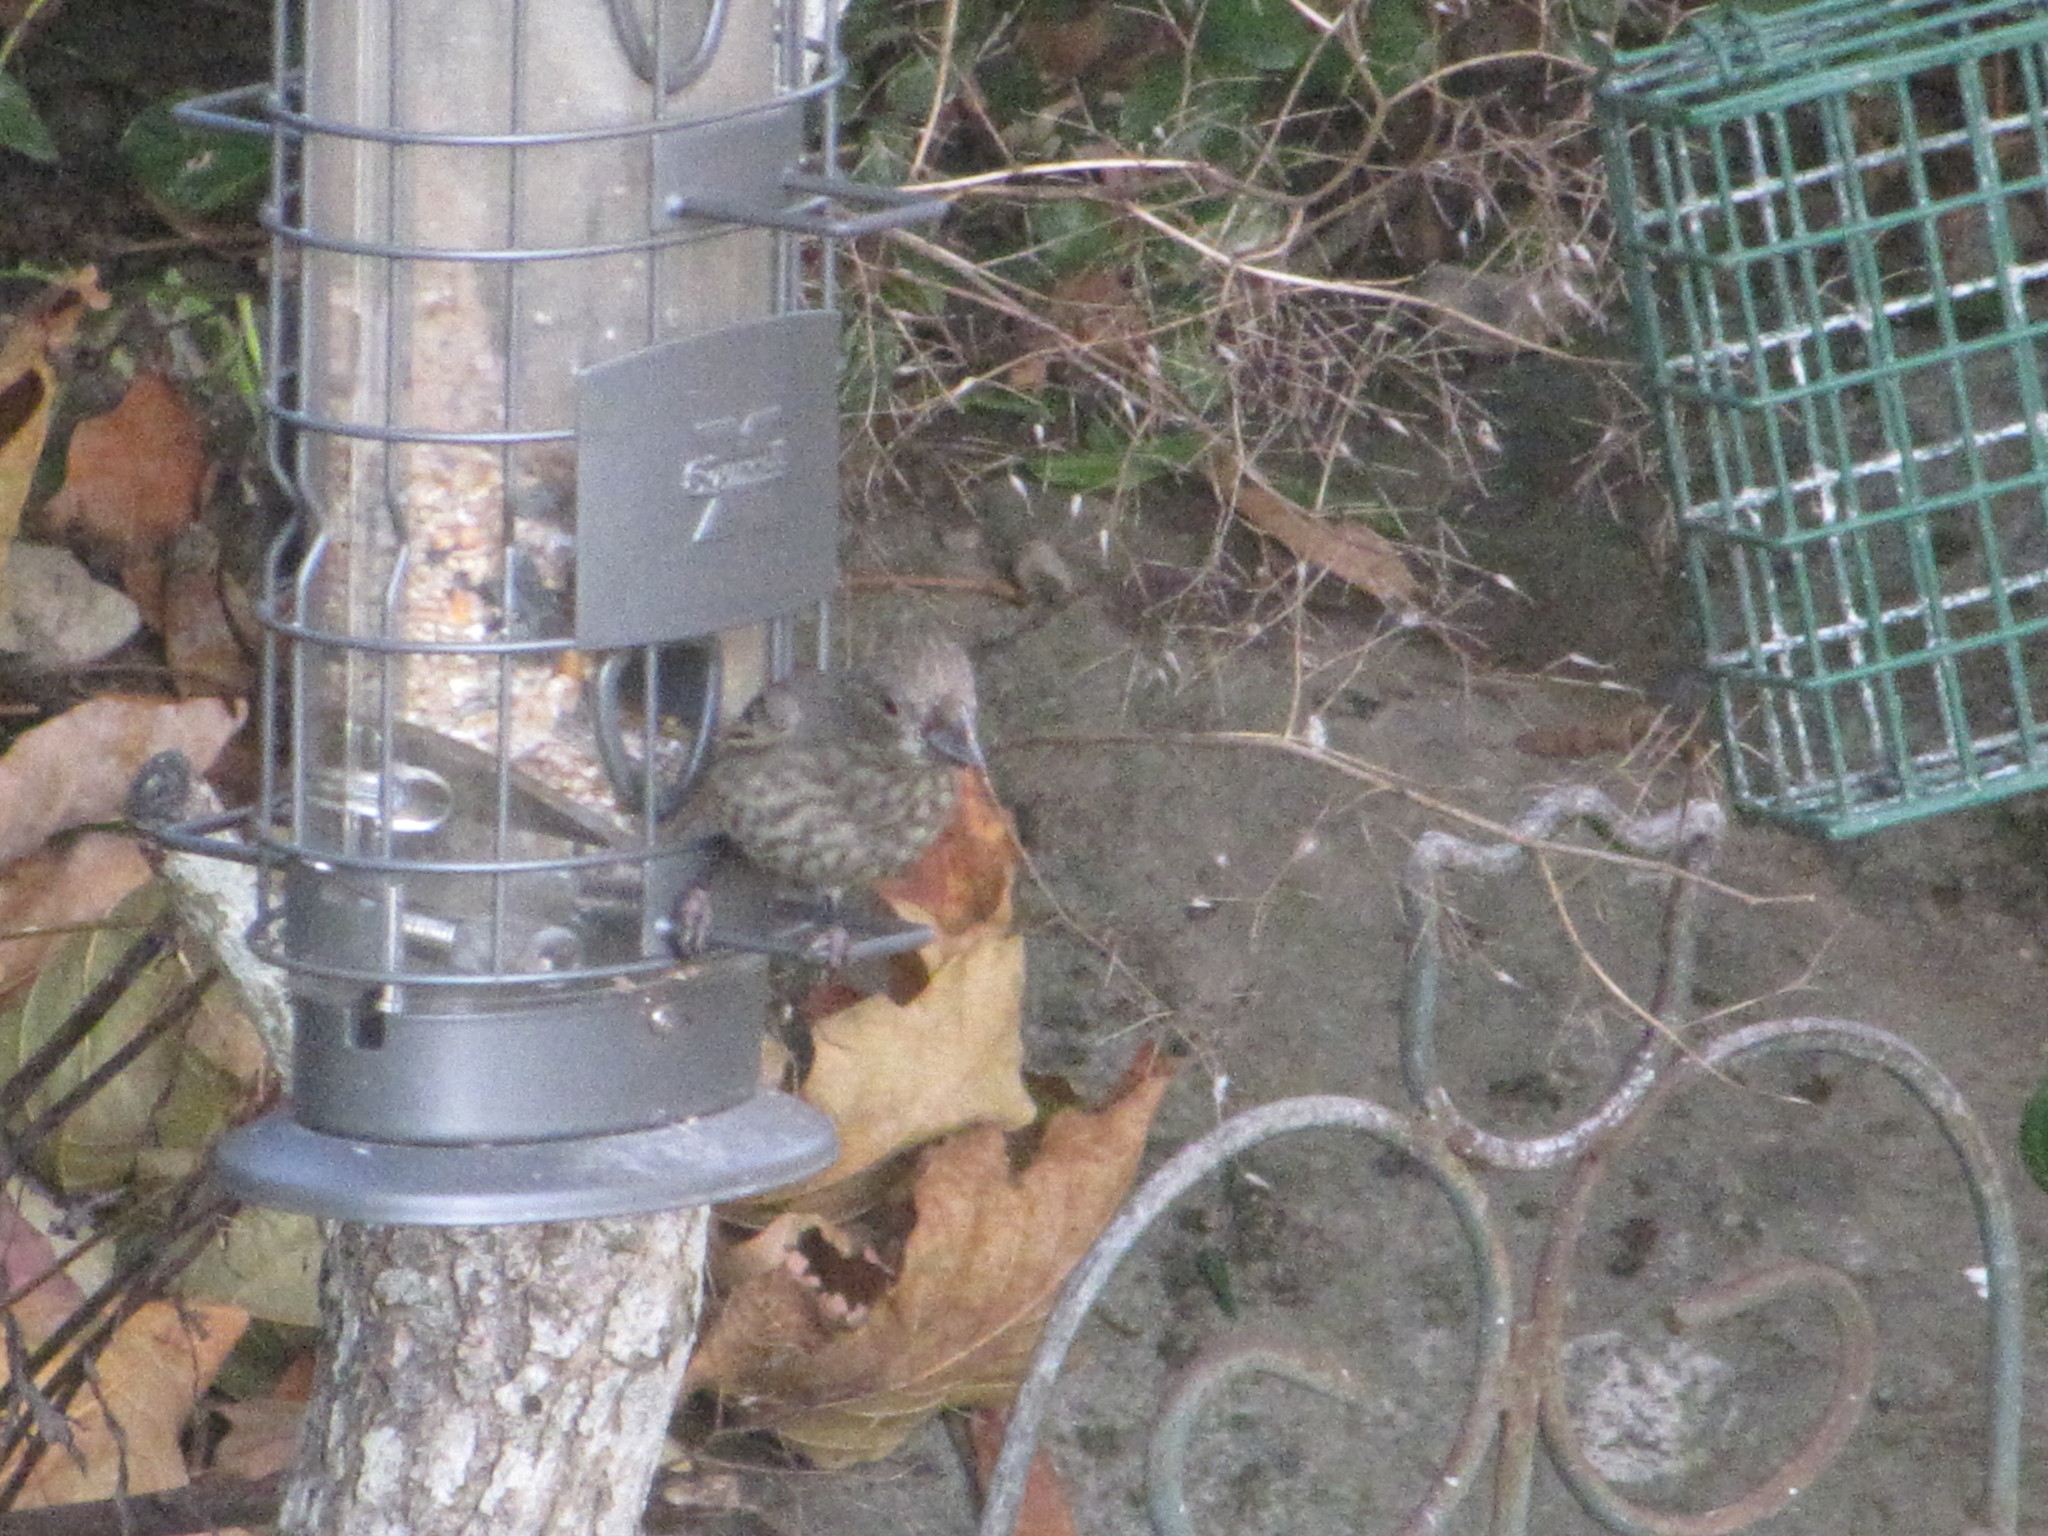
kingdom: Animalia
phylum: Chordata
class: Aves
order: Passeriformes
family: Fringillidae
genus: Haemorhous
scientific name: Haemorhous mexicanus
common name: House finch
